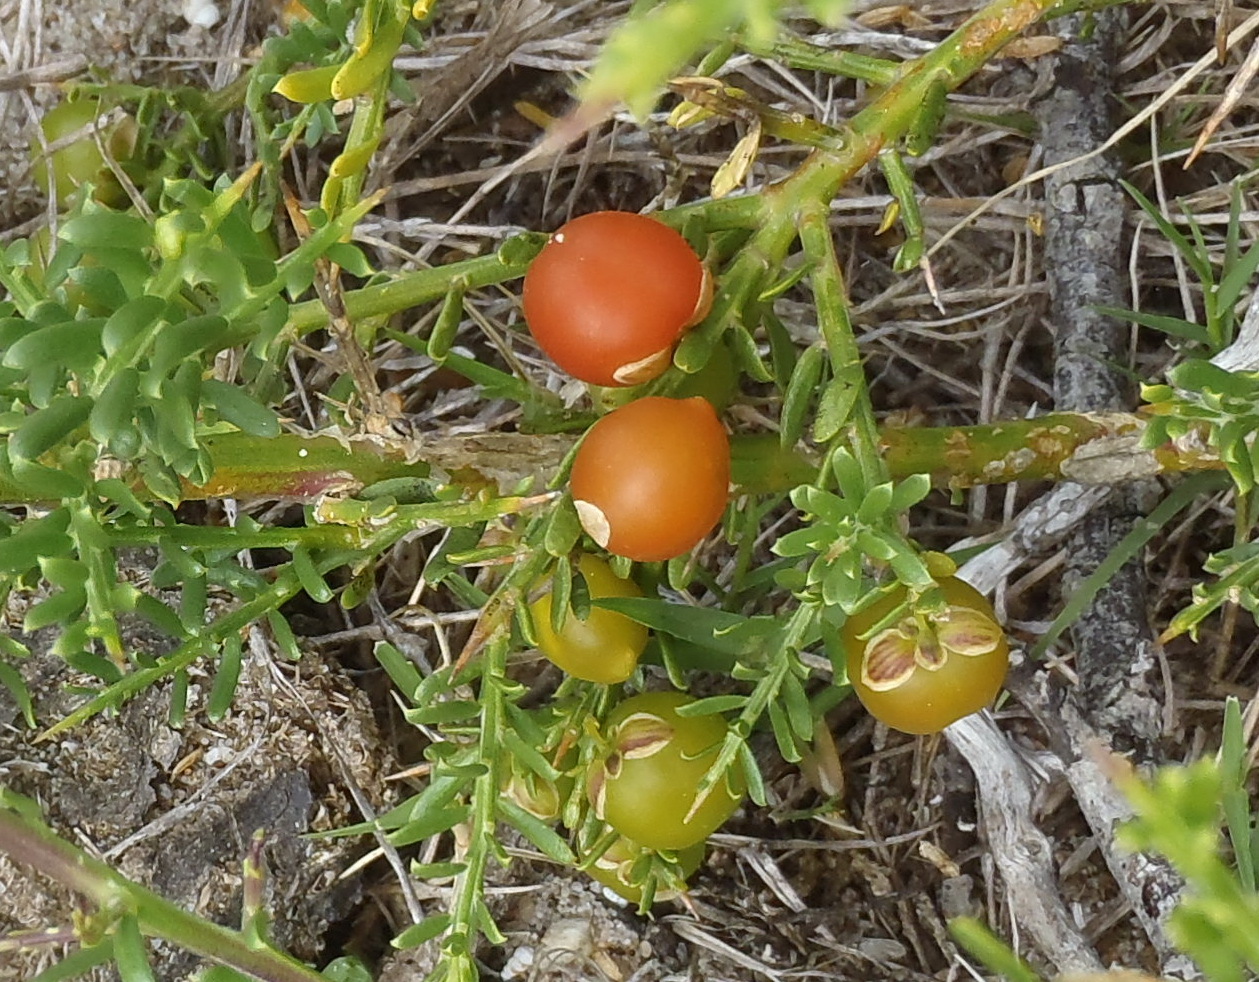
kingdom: Plantae
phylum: Tracheophyta
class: Magnoliopsida
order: Fabales
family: Polygalaceae
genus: Muraltia
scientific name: Muraltia spinosa
